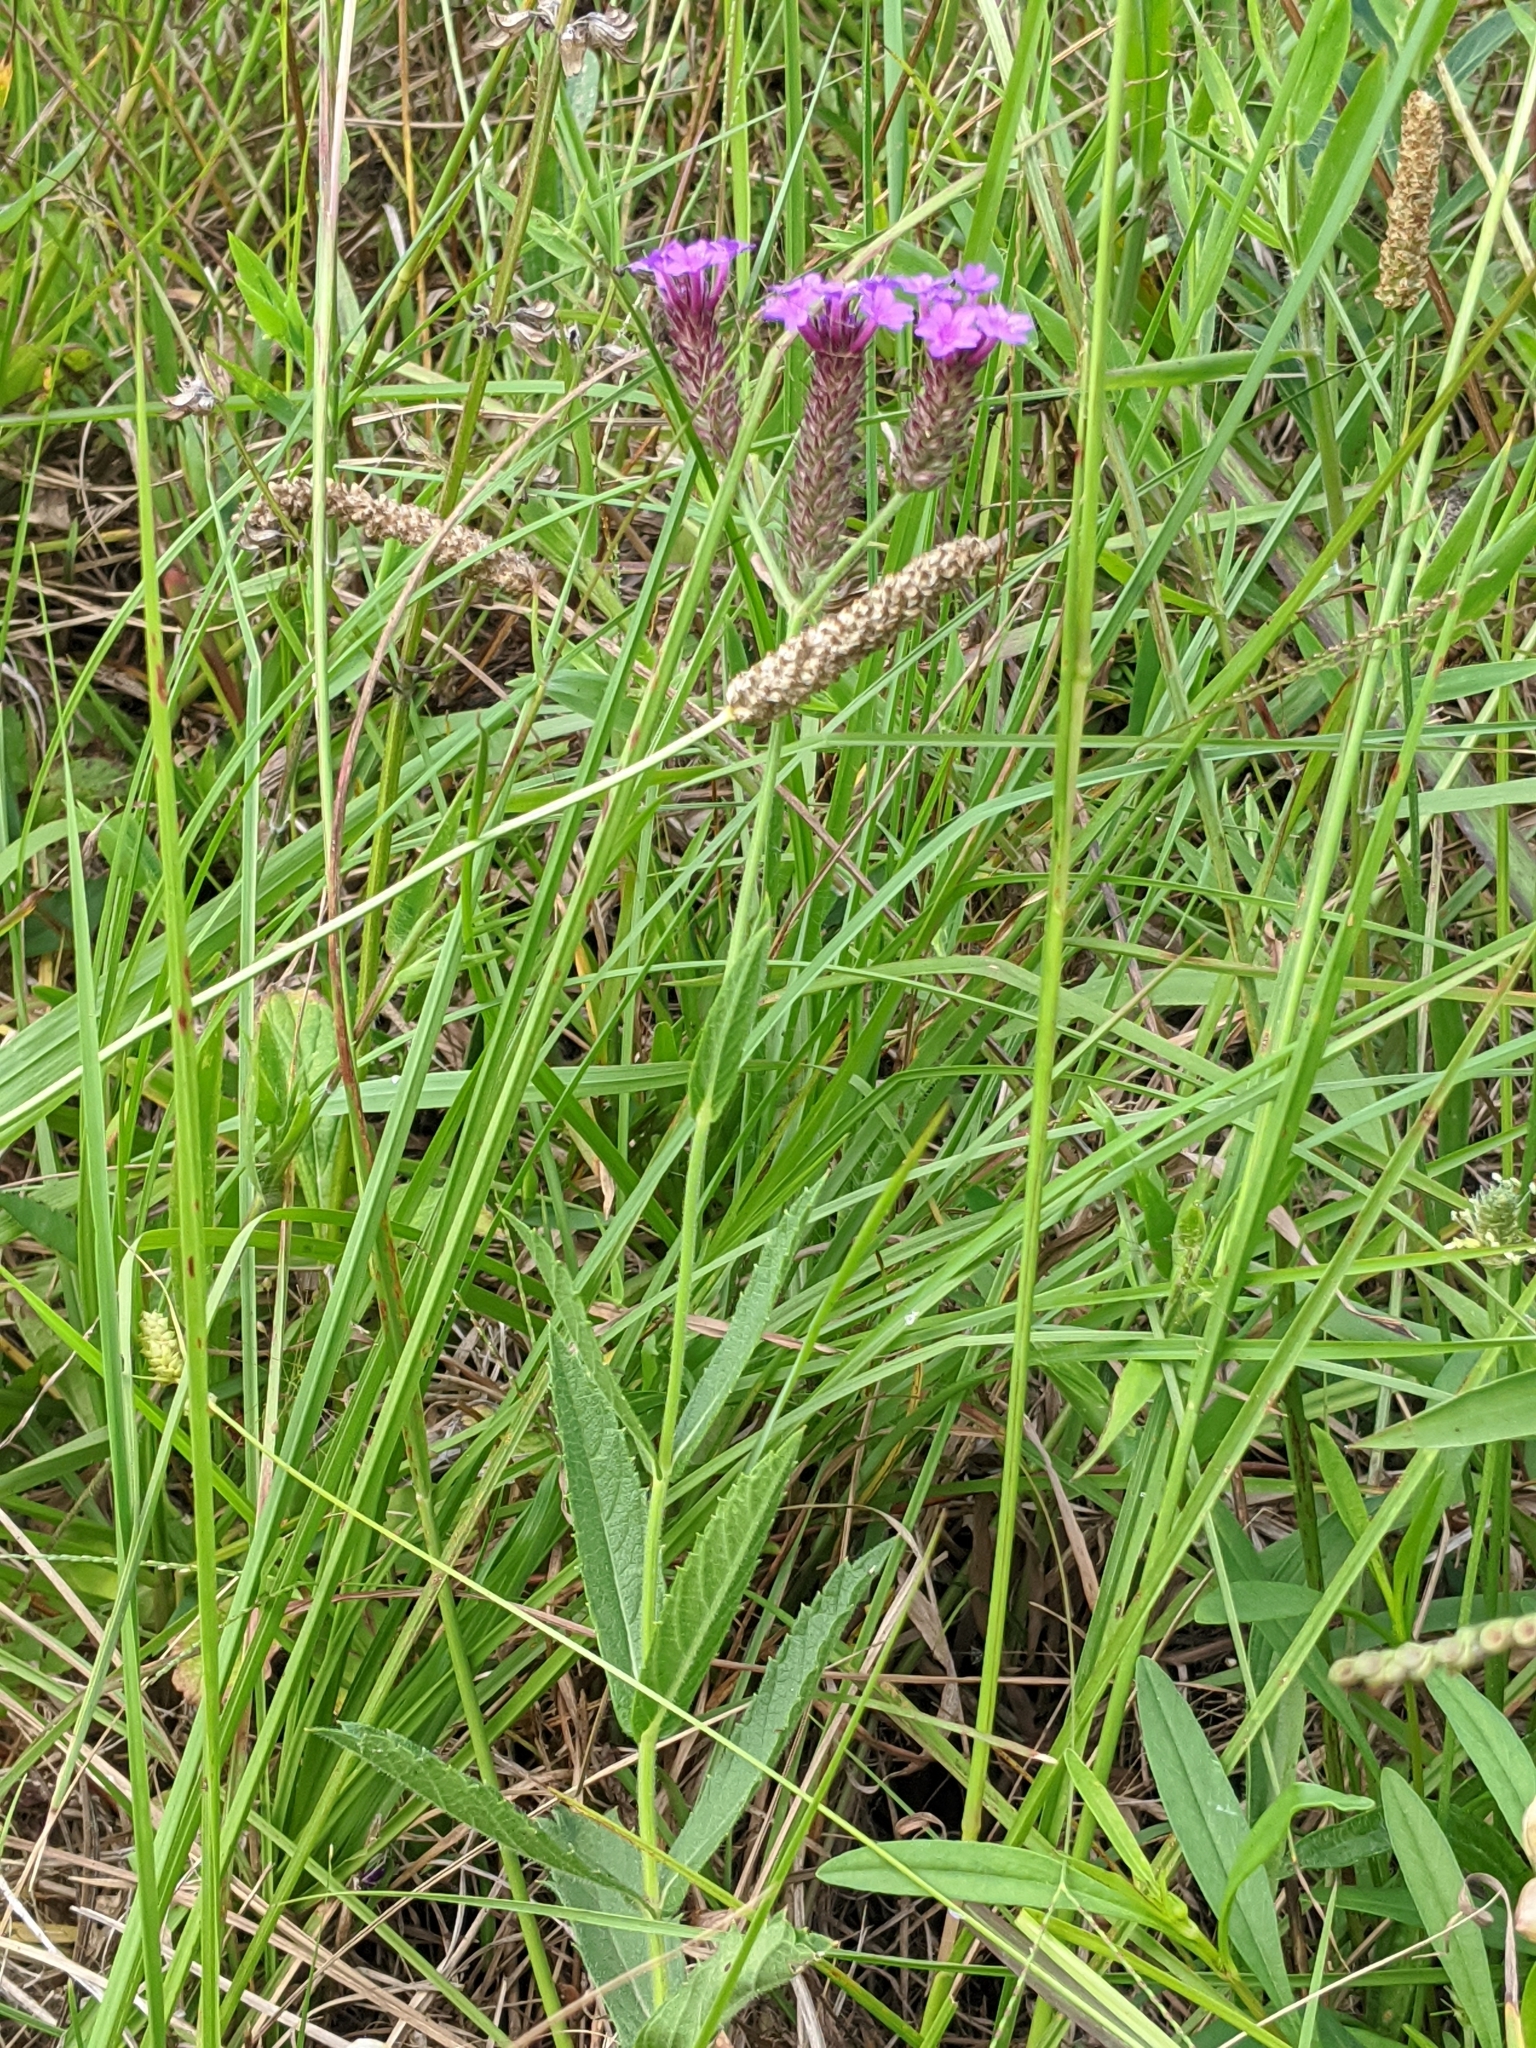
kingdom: Plantae
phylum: Tracheophyta
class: Magnoliopsida
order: Lamiales
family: Verbenaceae
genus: Verbena
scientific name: Verbena rigida
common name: Slender vervain
